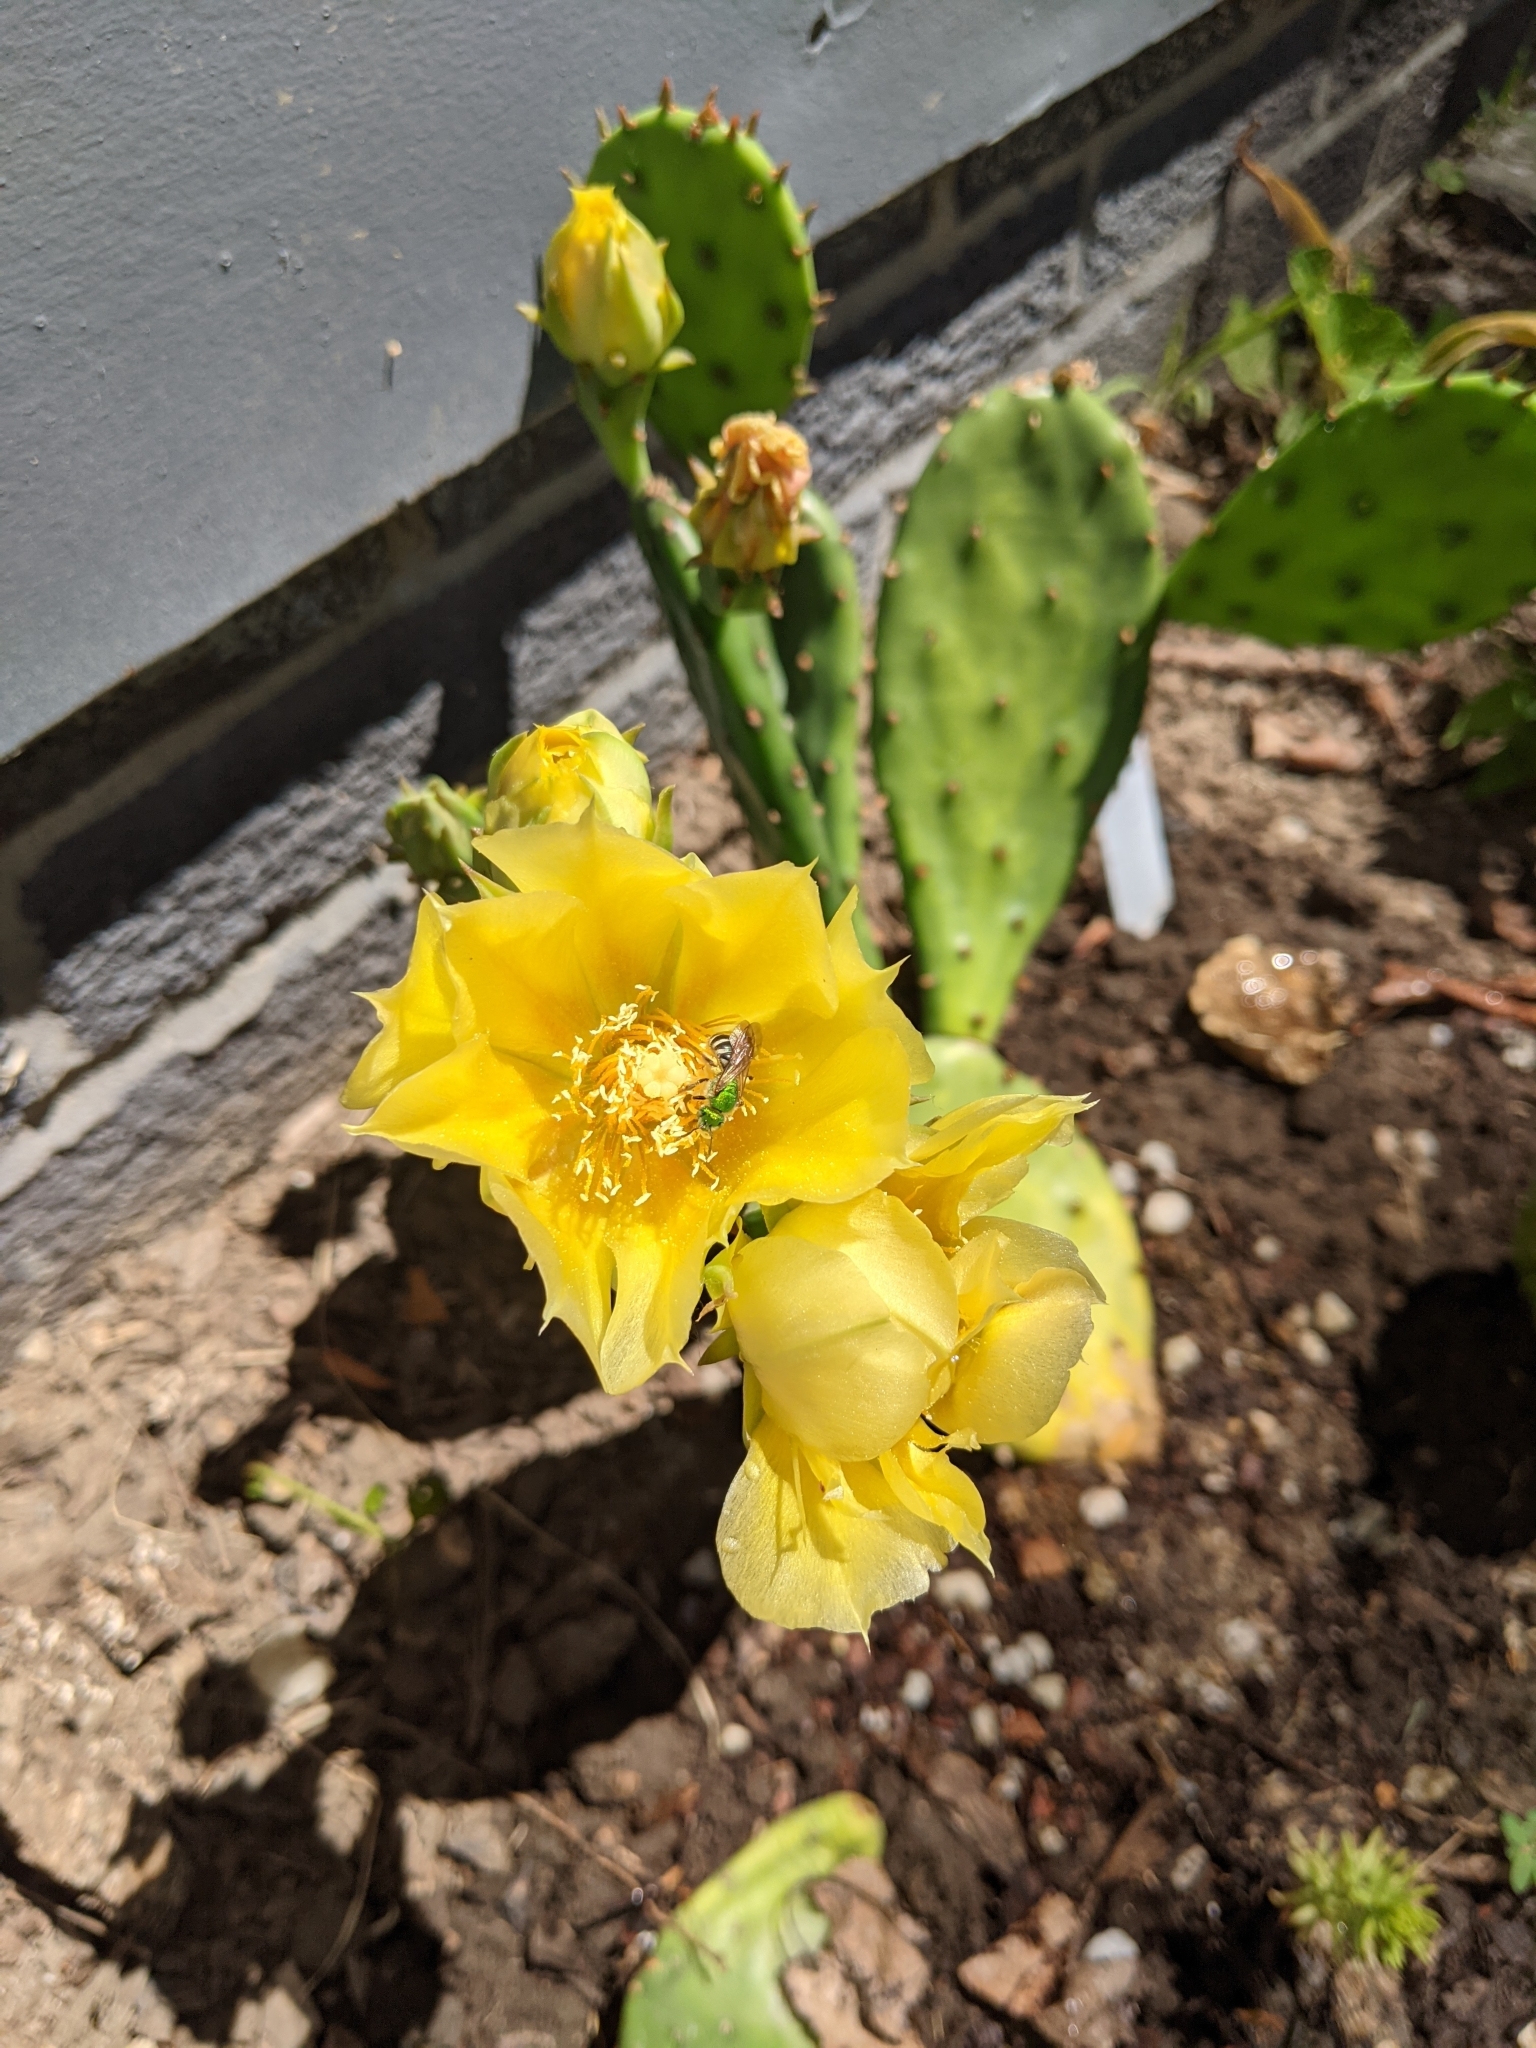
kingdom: Animalia
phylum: Arthropoda
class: Insecta
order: Hymenoptera
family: Halictidae
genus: Agapostemon
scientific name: Agapostemon virescens
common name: Bicolored striped sweat bee
